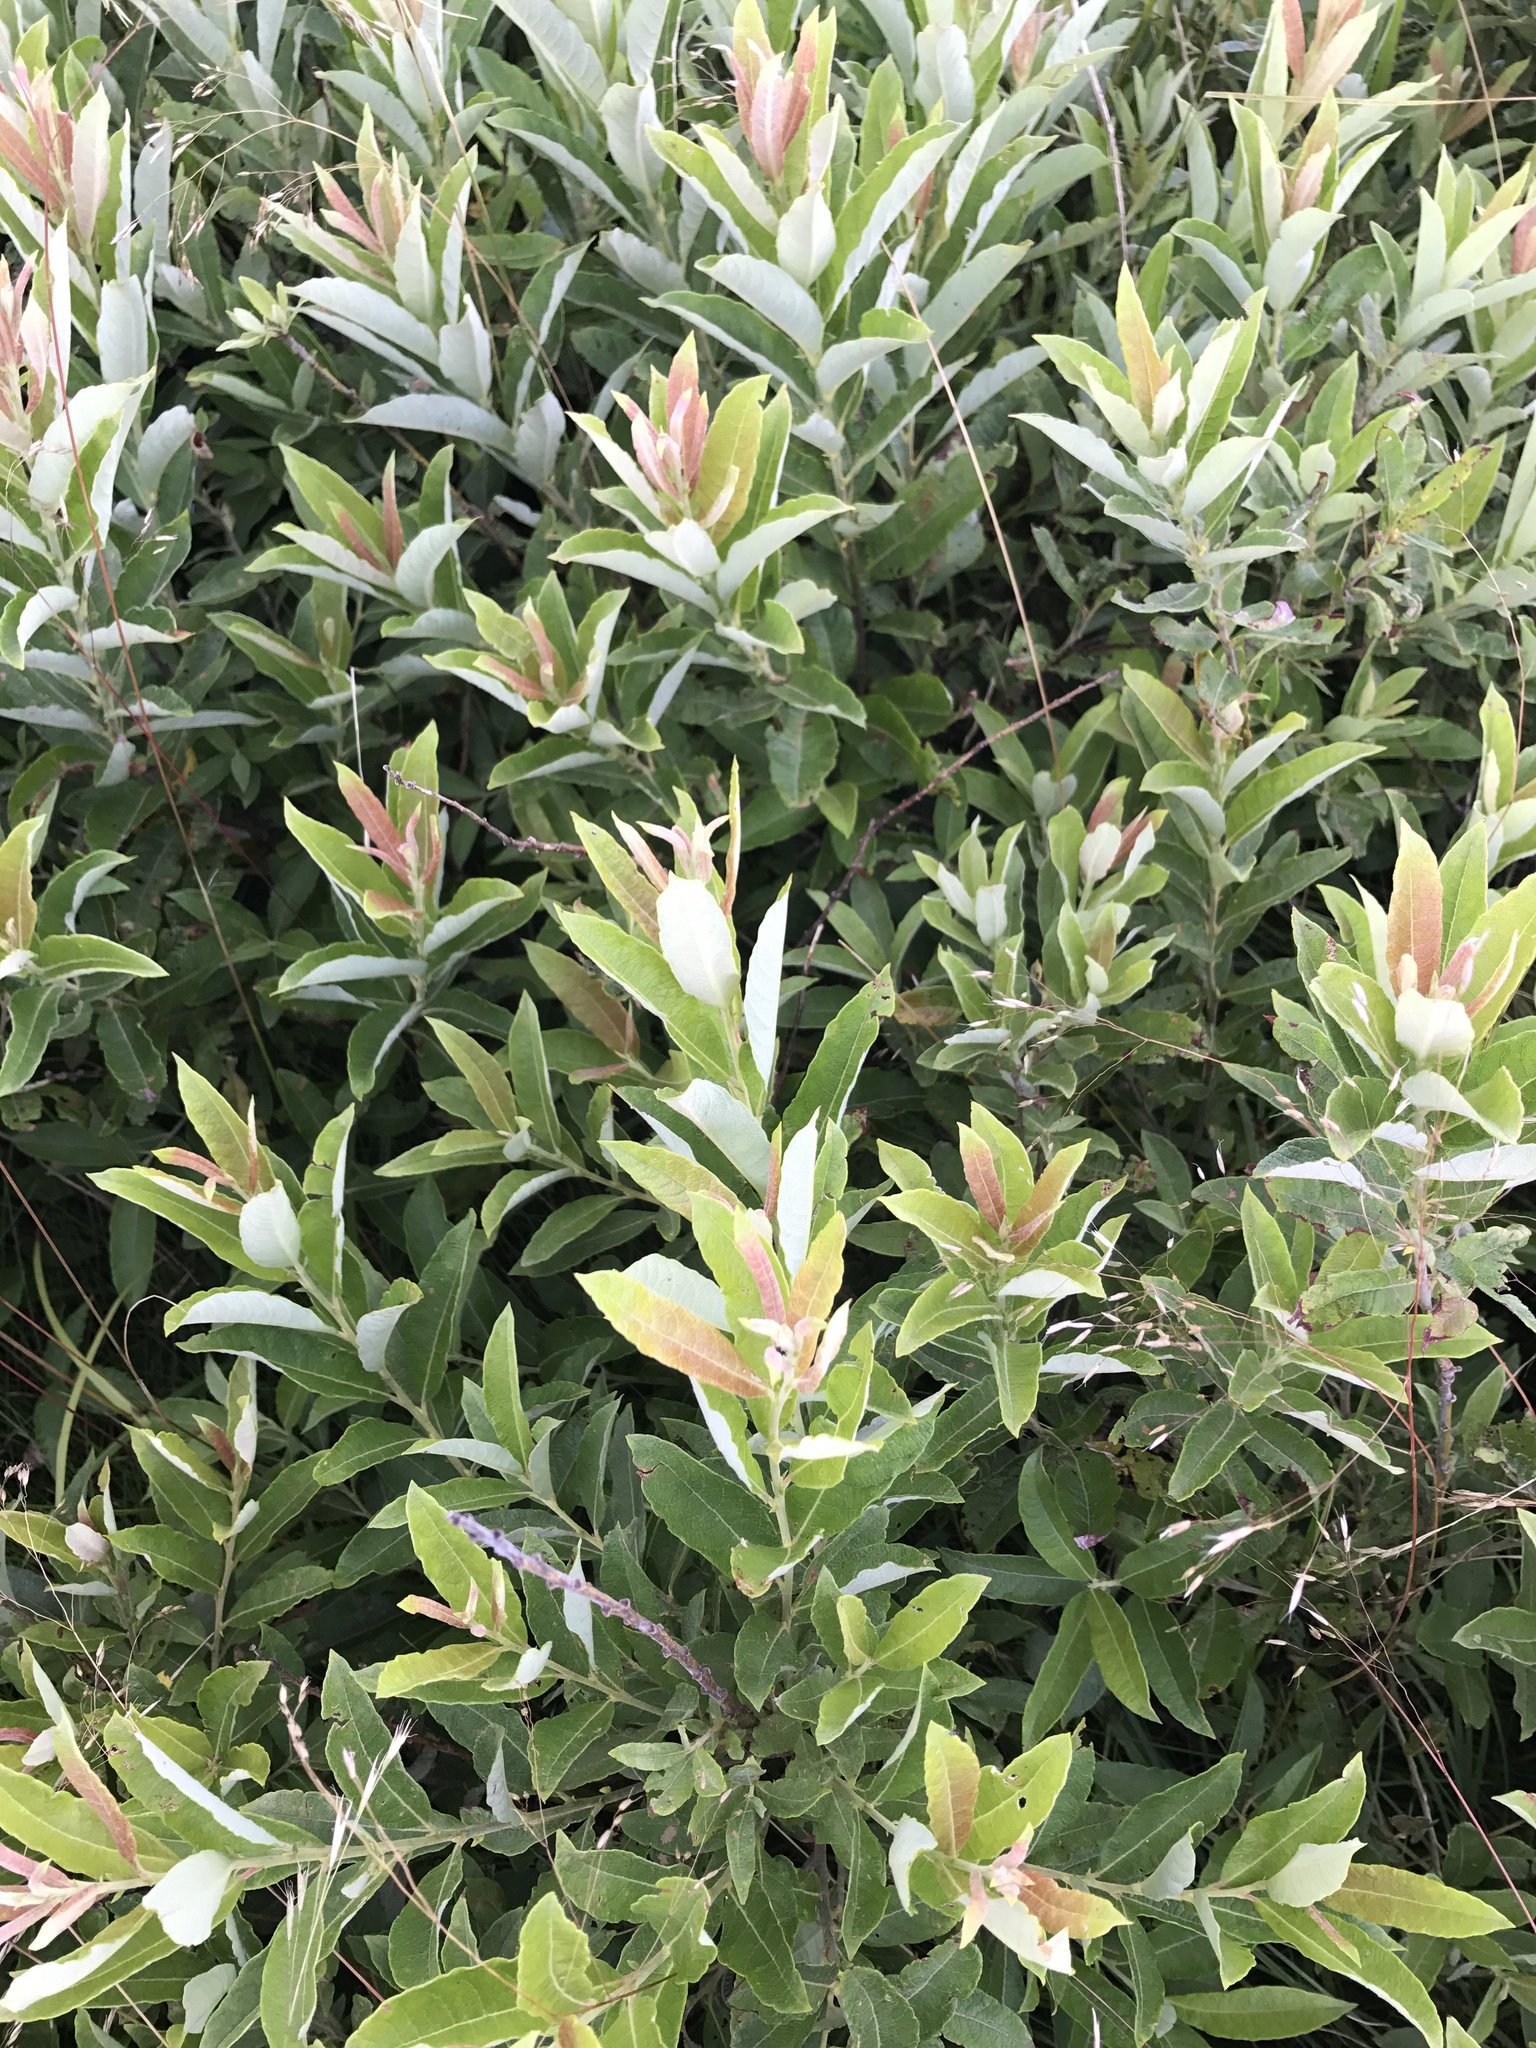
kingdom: Plantae
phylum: Tracheophyta
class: Magnoliopsida
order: Malpighiales
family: Salicaceae
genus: Salix
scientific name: Salix humilis
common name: Prairie willow
